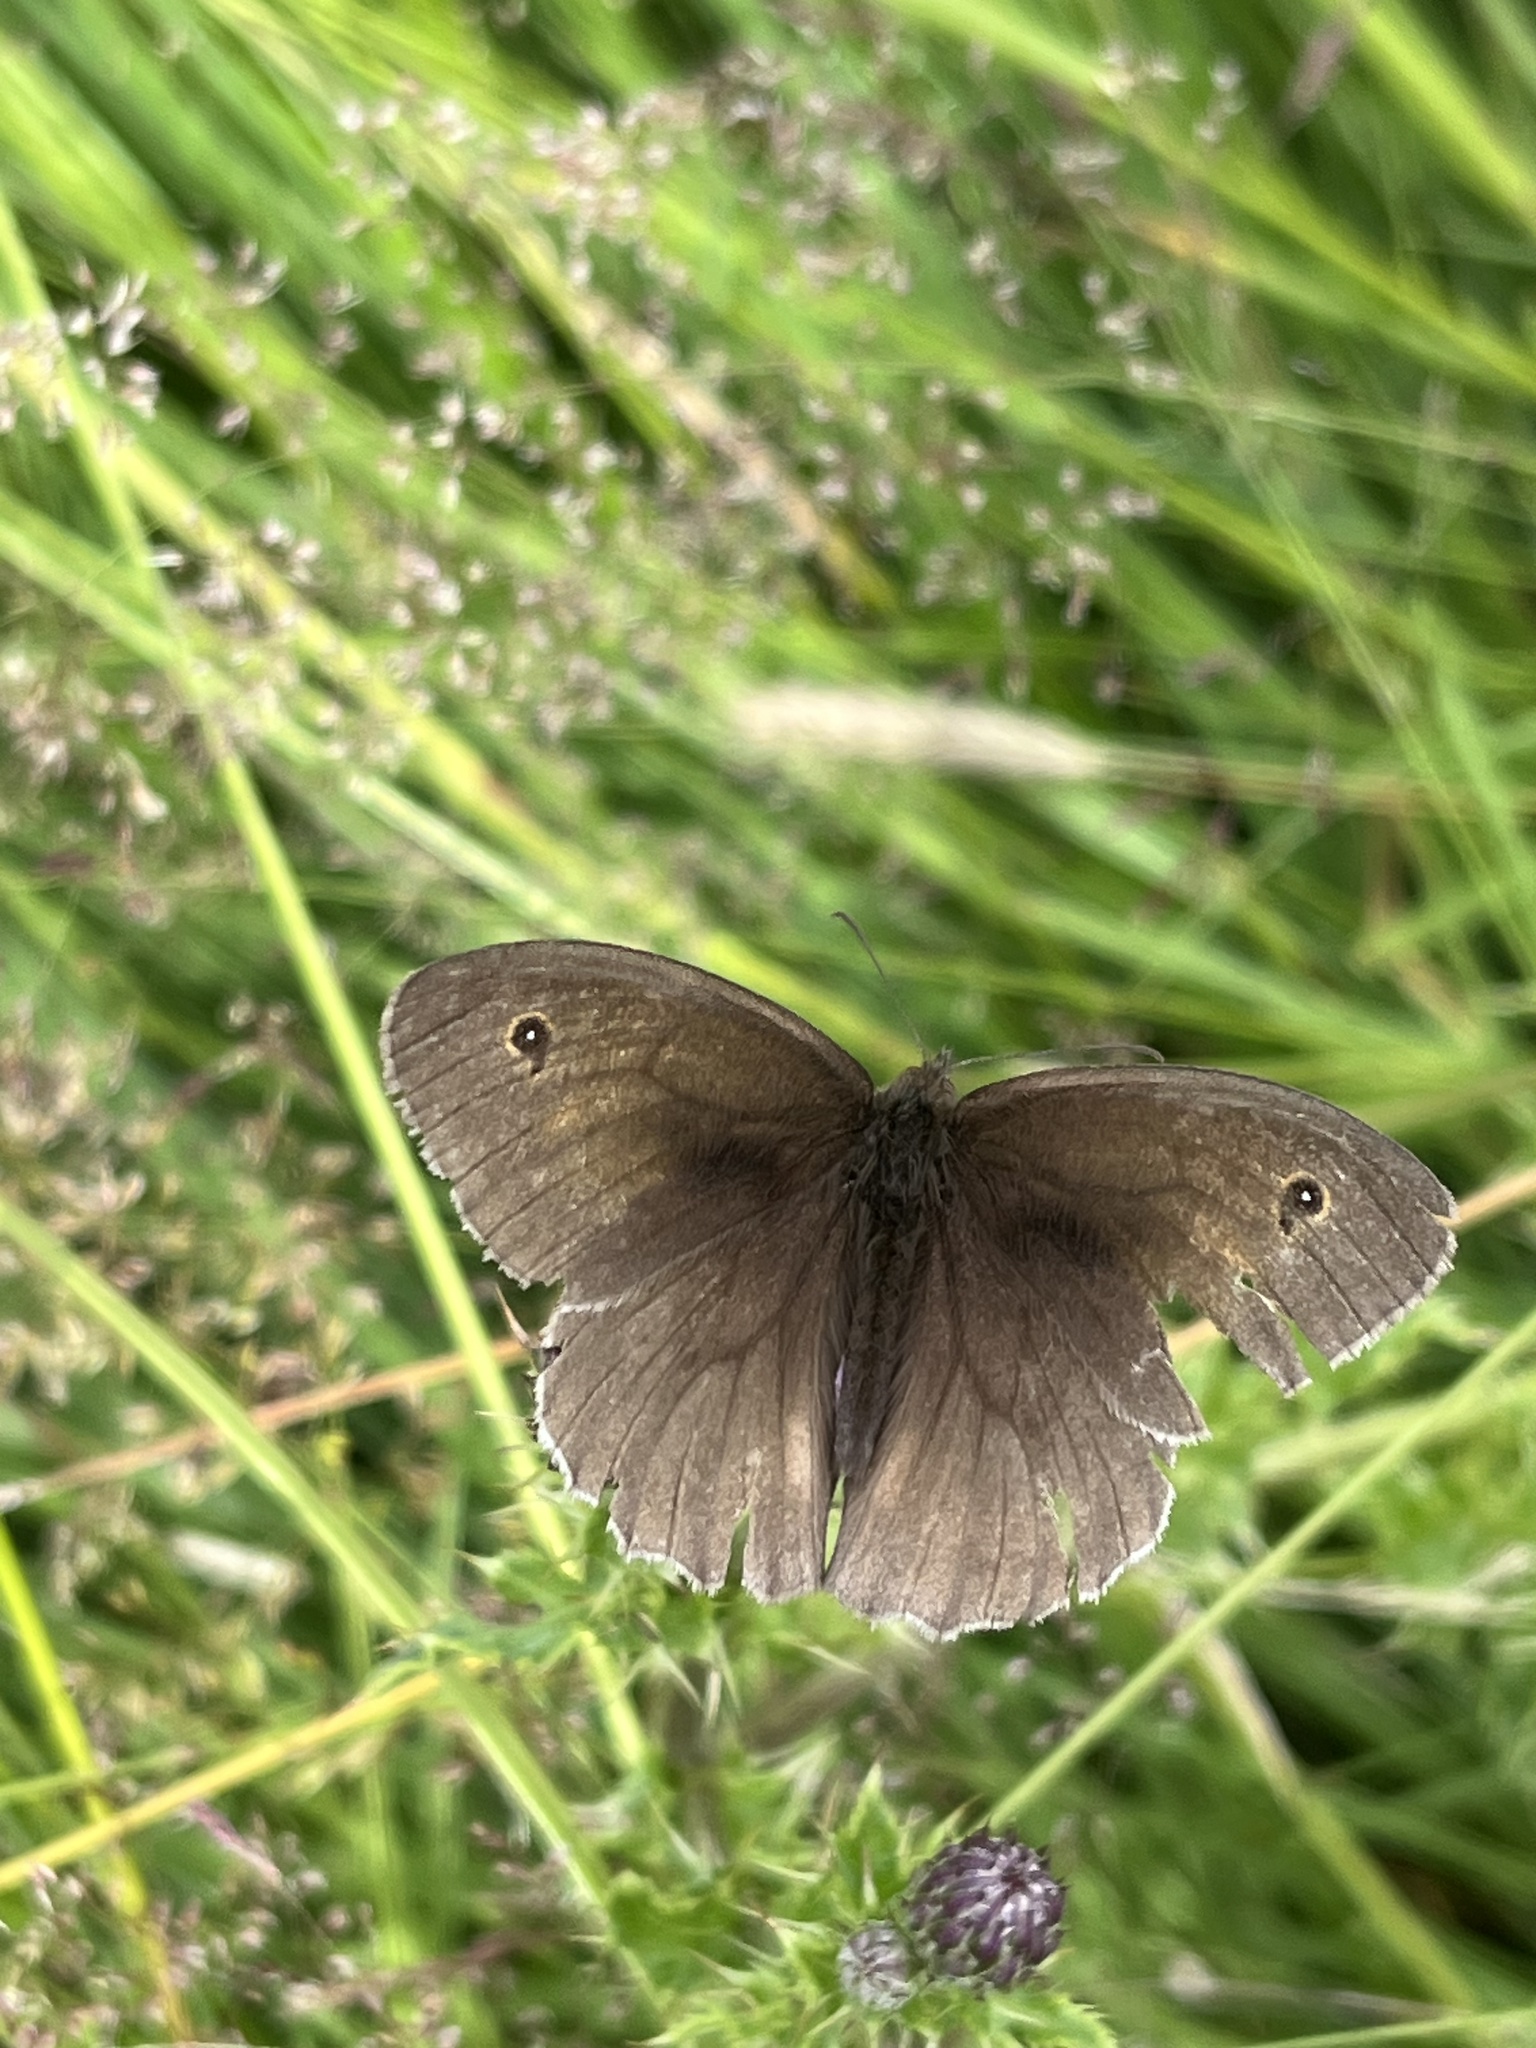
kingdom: Animalia
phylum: Arthropoda
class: Insecta
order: Lepidoptera
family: Nymphalidae
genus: Maniola
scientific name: Maniola jurtina
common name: Meadow brown
